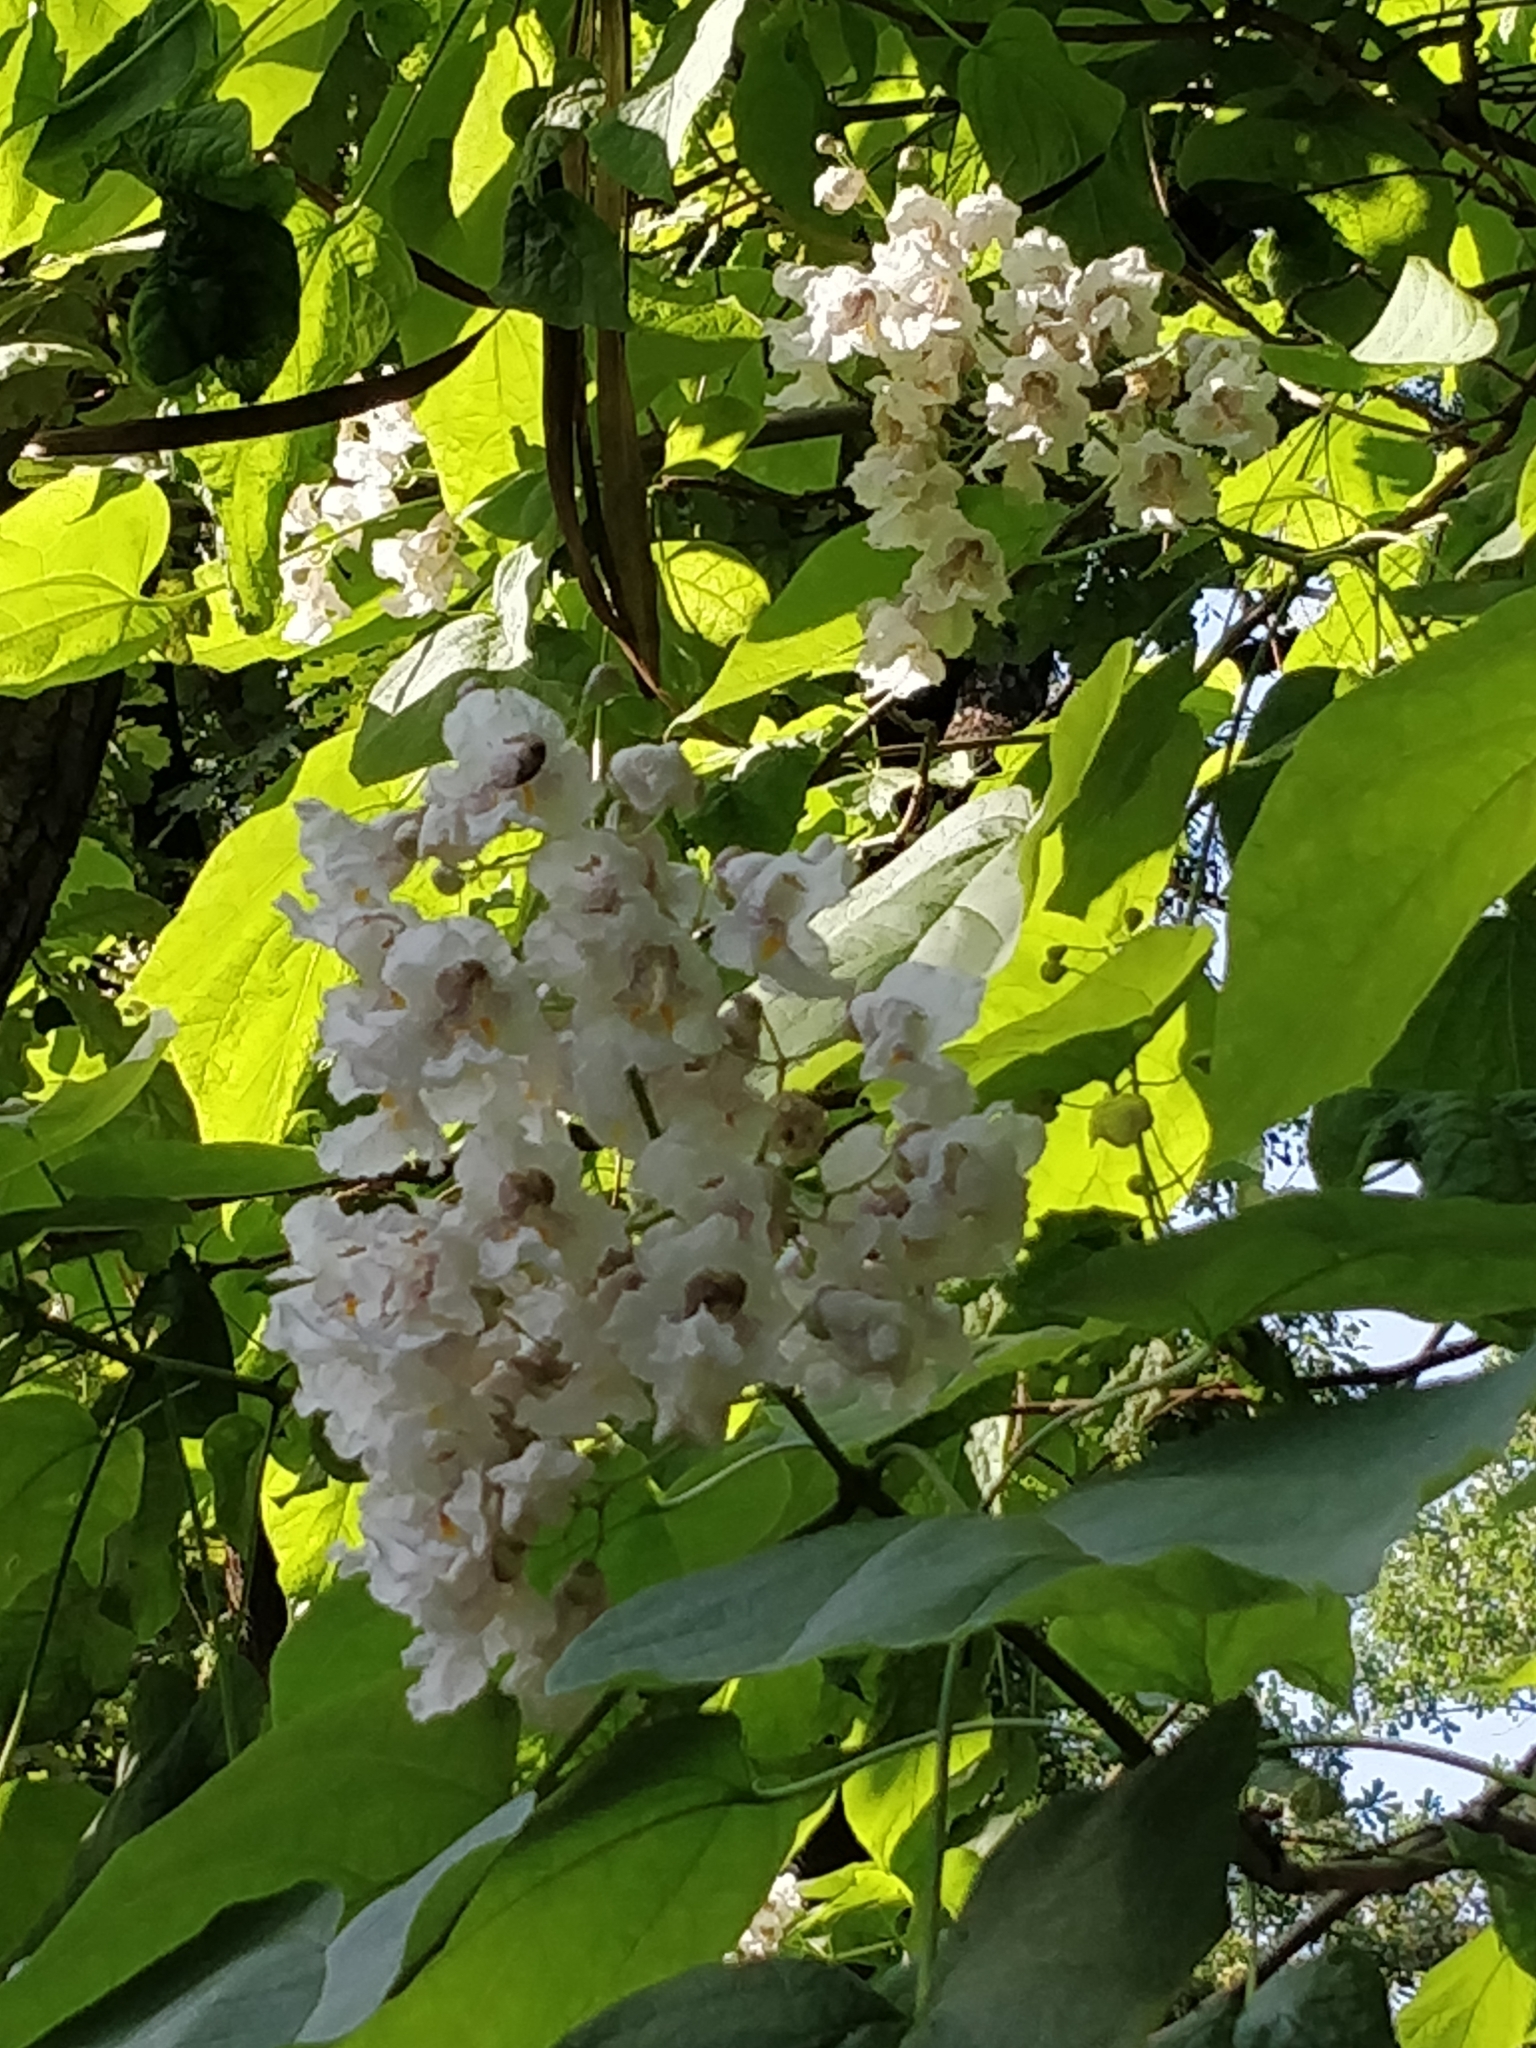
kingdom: Plantae
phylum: Tracheophyta
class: Magnoliopsida
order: Lamiales
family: Bignoniaceae
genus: Catalpa
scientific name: Catalpa bignonioides
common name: Southern catalpa
